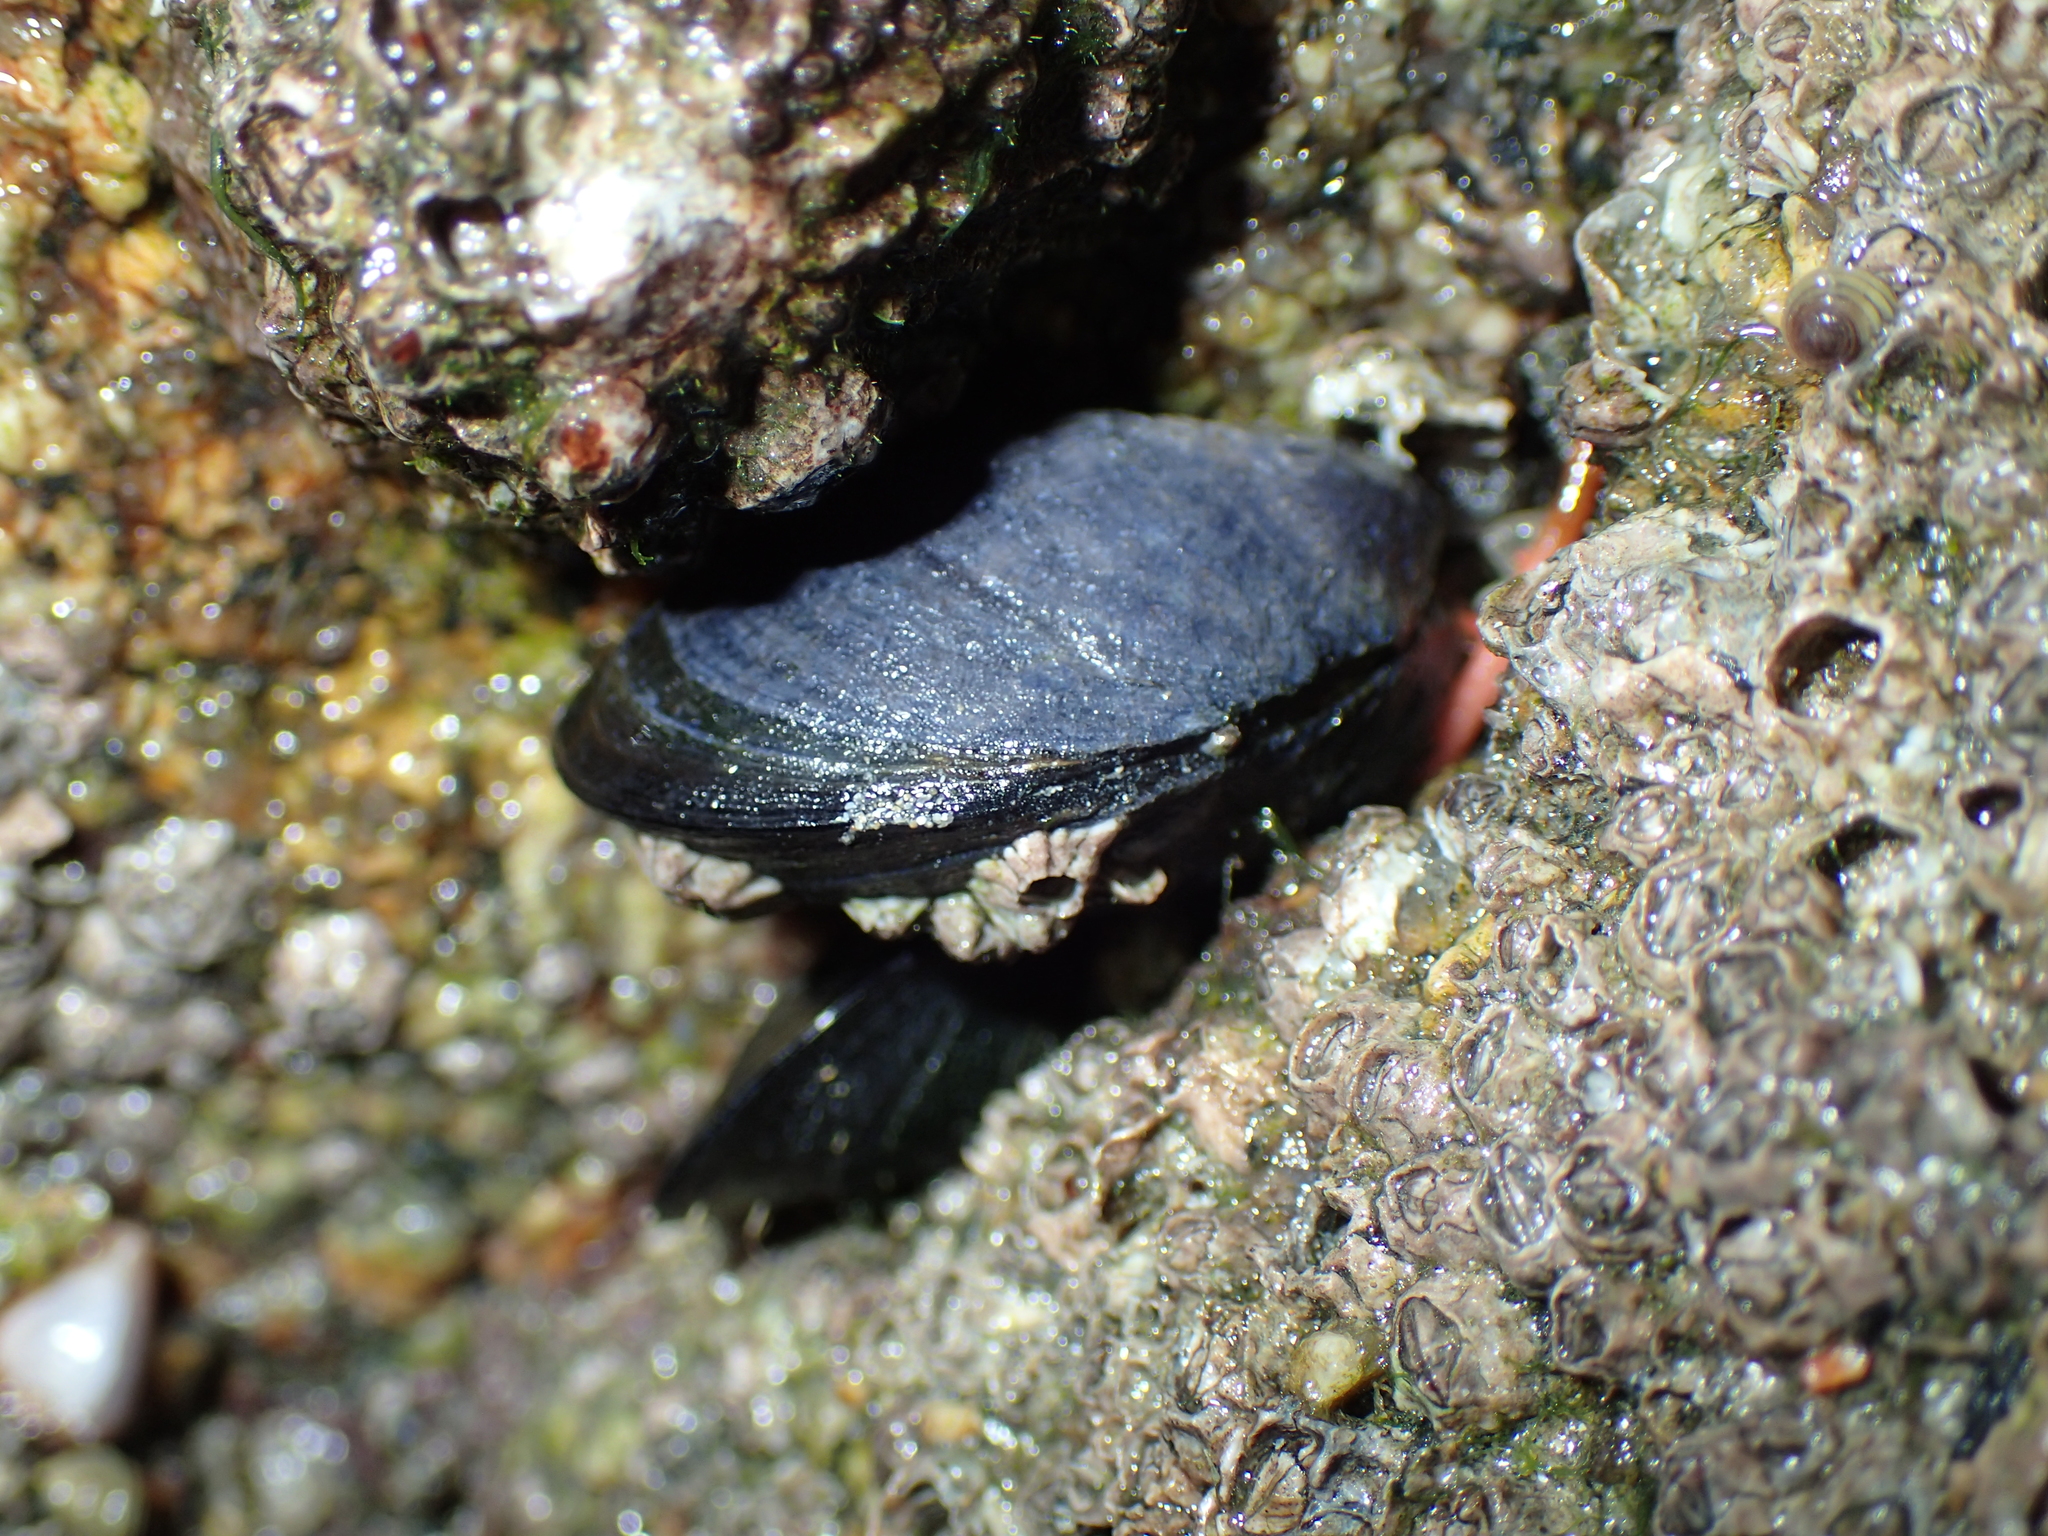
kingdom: Animalia
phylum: Mollusca
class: Bivalvia
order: Mytilida
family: Mytilidae
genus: Mytilus
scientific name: Mytilus edulis
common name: Blue mussel
